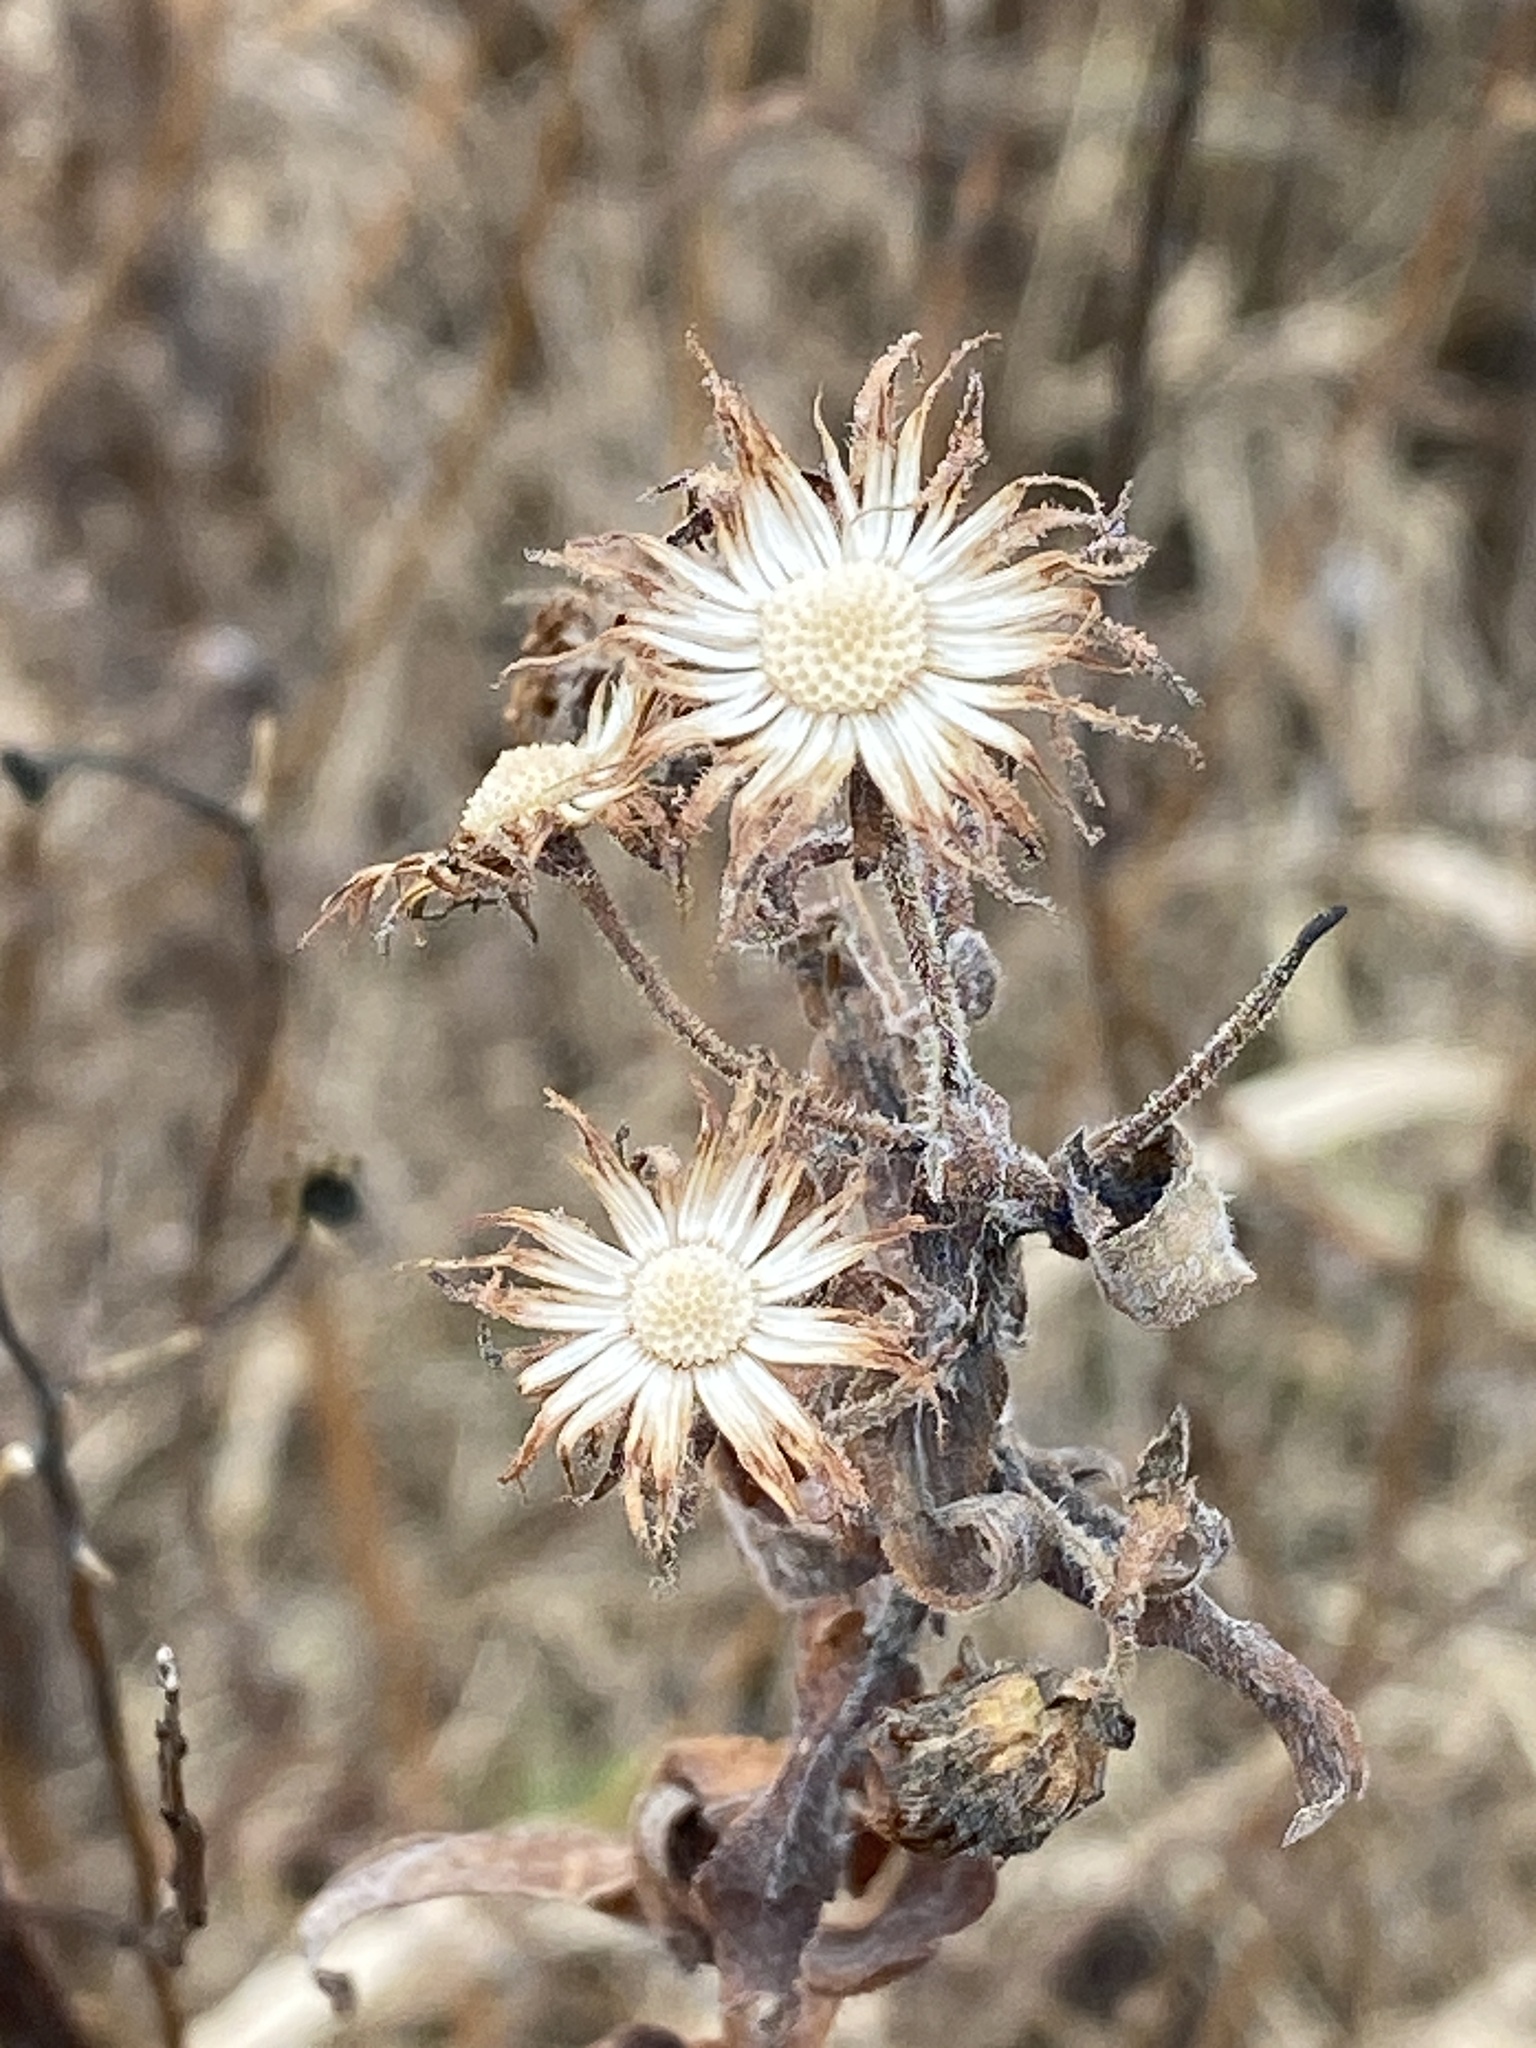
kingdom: Plantae
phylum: Tracheophyta
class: Magnoliopsida
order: Asterales
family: Asteraceae
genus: Symphyotrichum
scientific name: Symphyotrichum novae-angliae
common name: Michaelmas daisy
